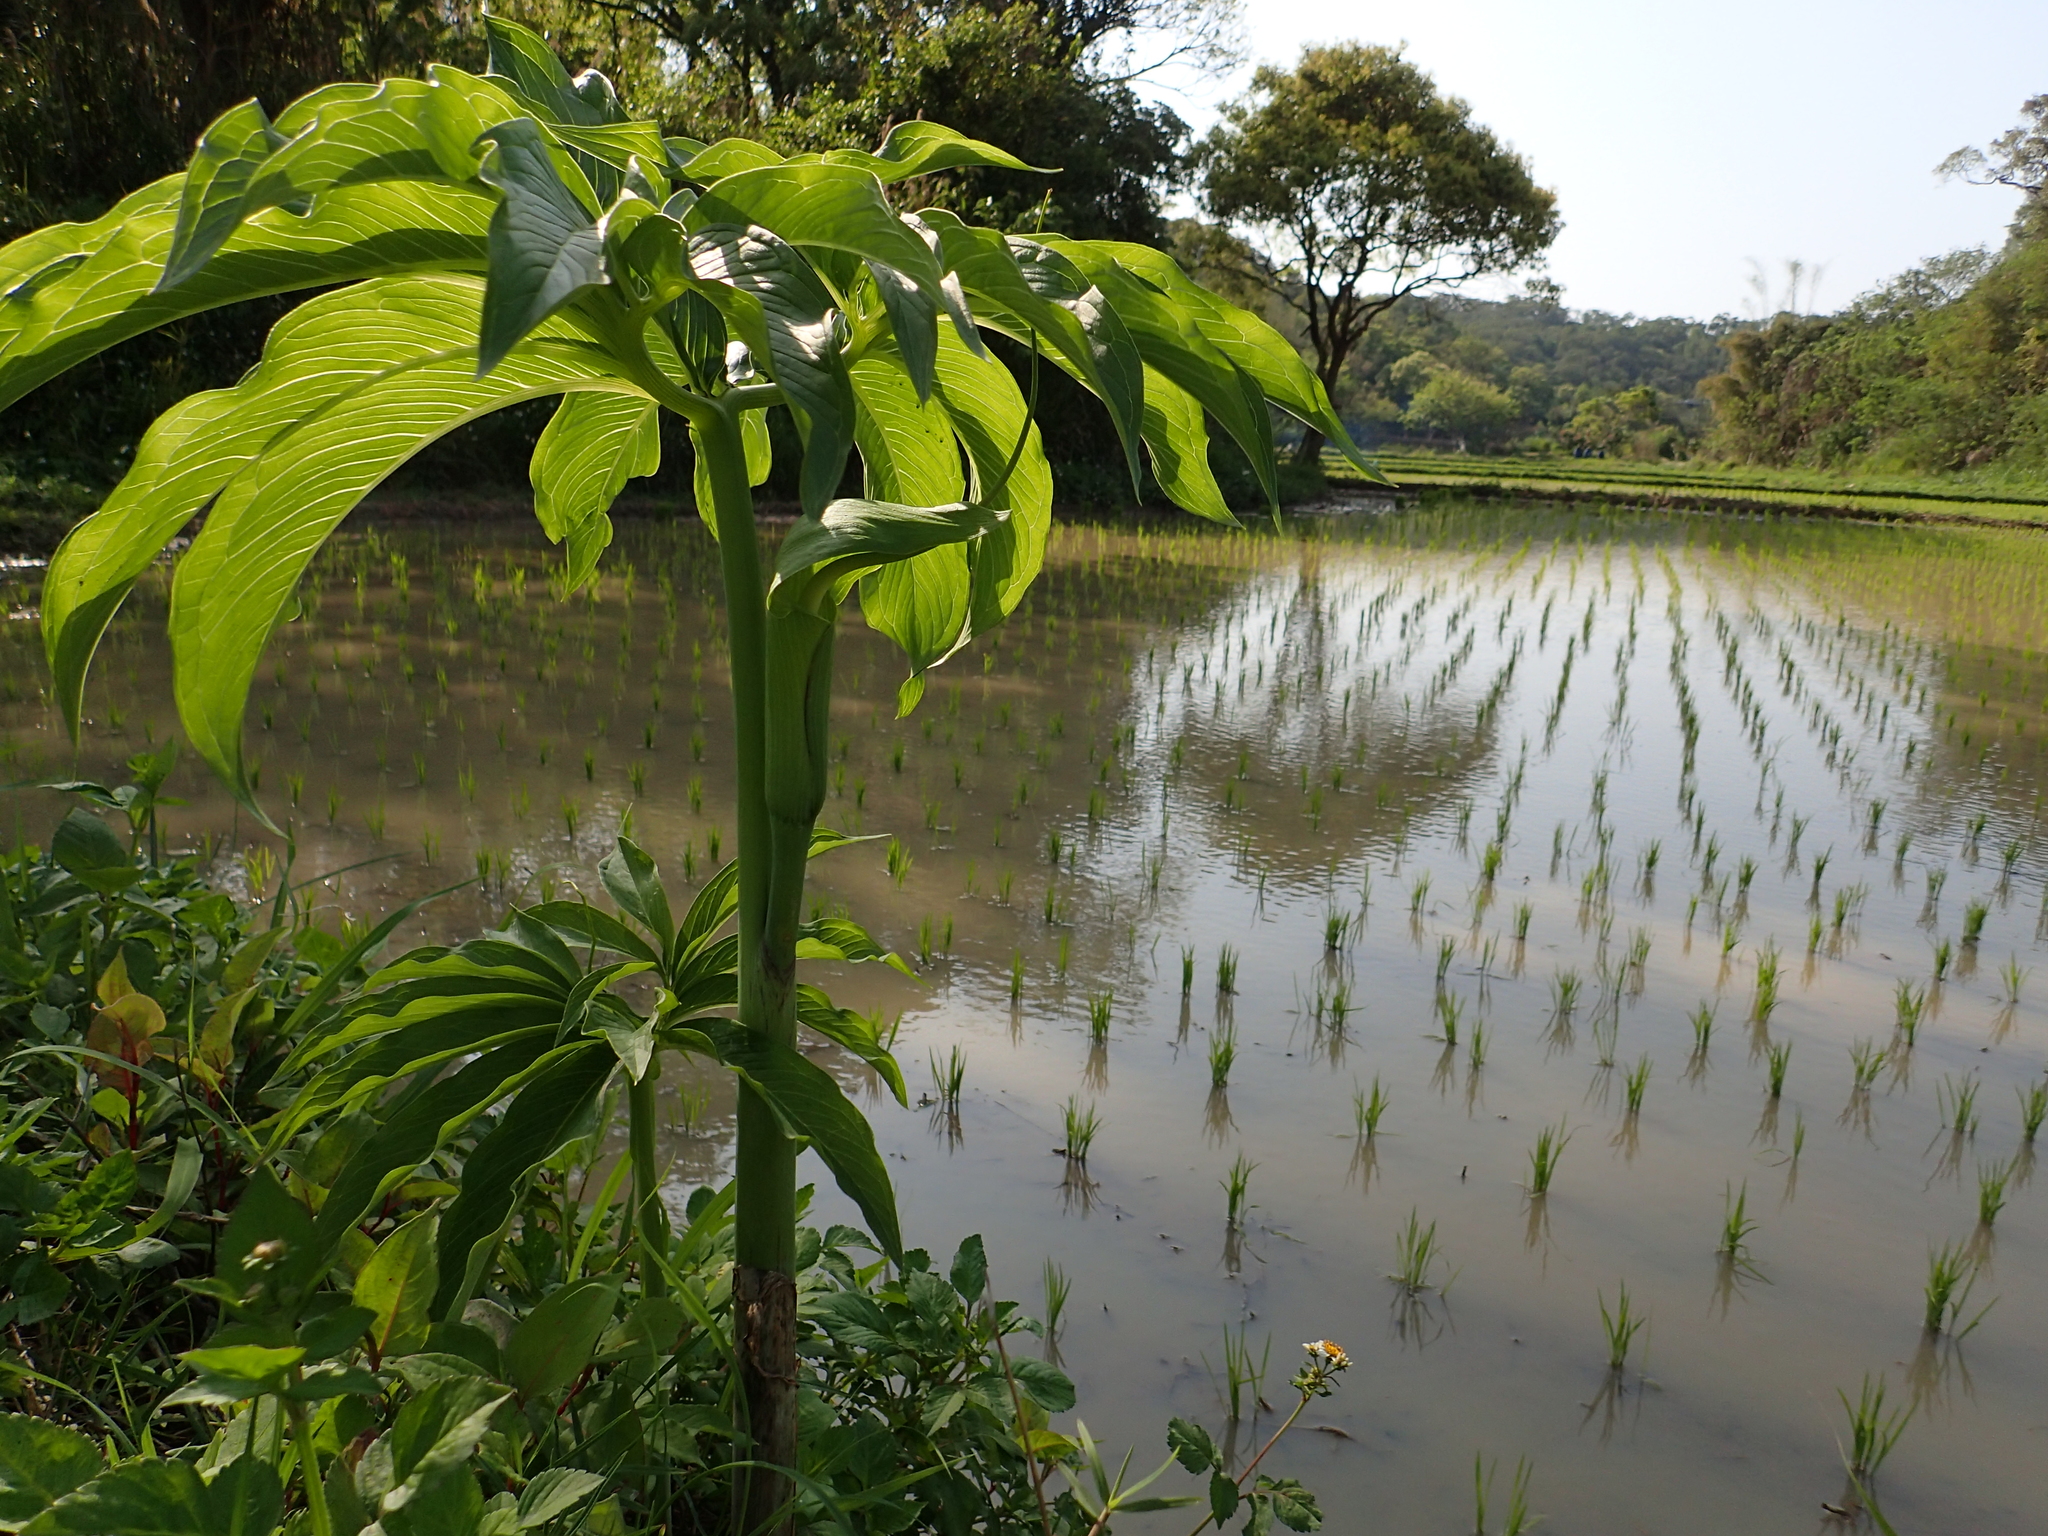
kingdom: Plantae
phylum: Tracheophyta
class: Liliopsida
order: Alismatales
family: Araceae
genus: Arisaema
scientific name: Arisaema heterophyllum
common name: Dancing crane cobra lily
